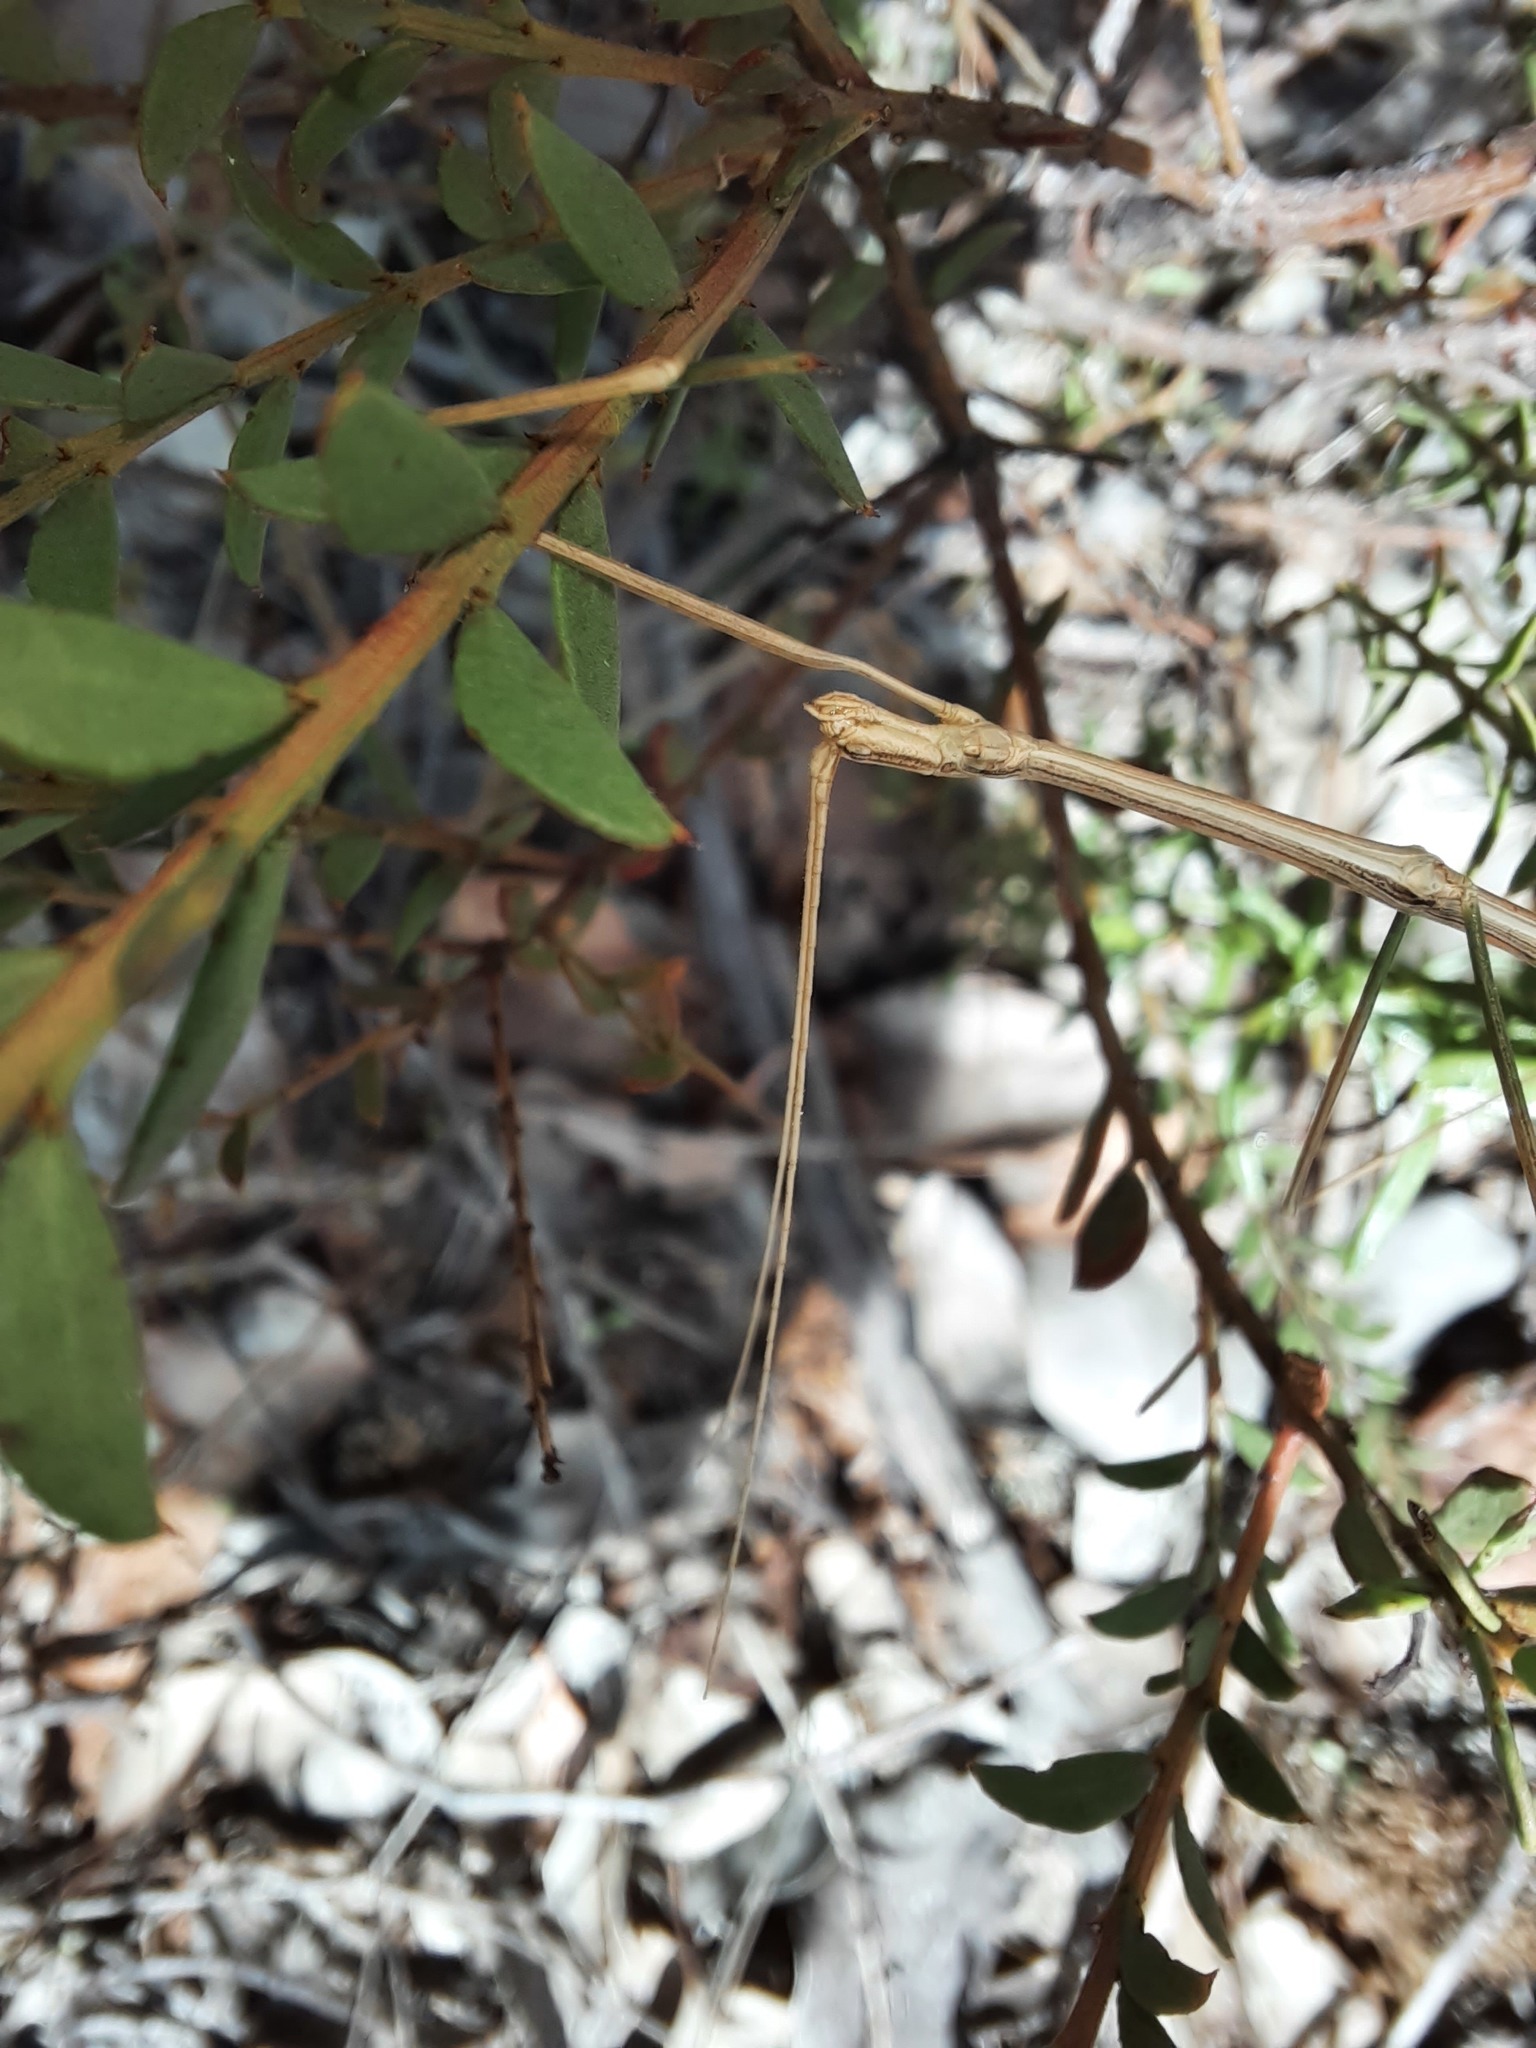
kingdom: Animalia
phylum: Arthropoda
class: Insecta
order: Phasmida
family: Lonchodidae
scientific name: Lonchodidae
